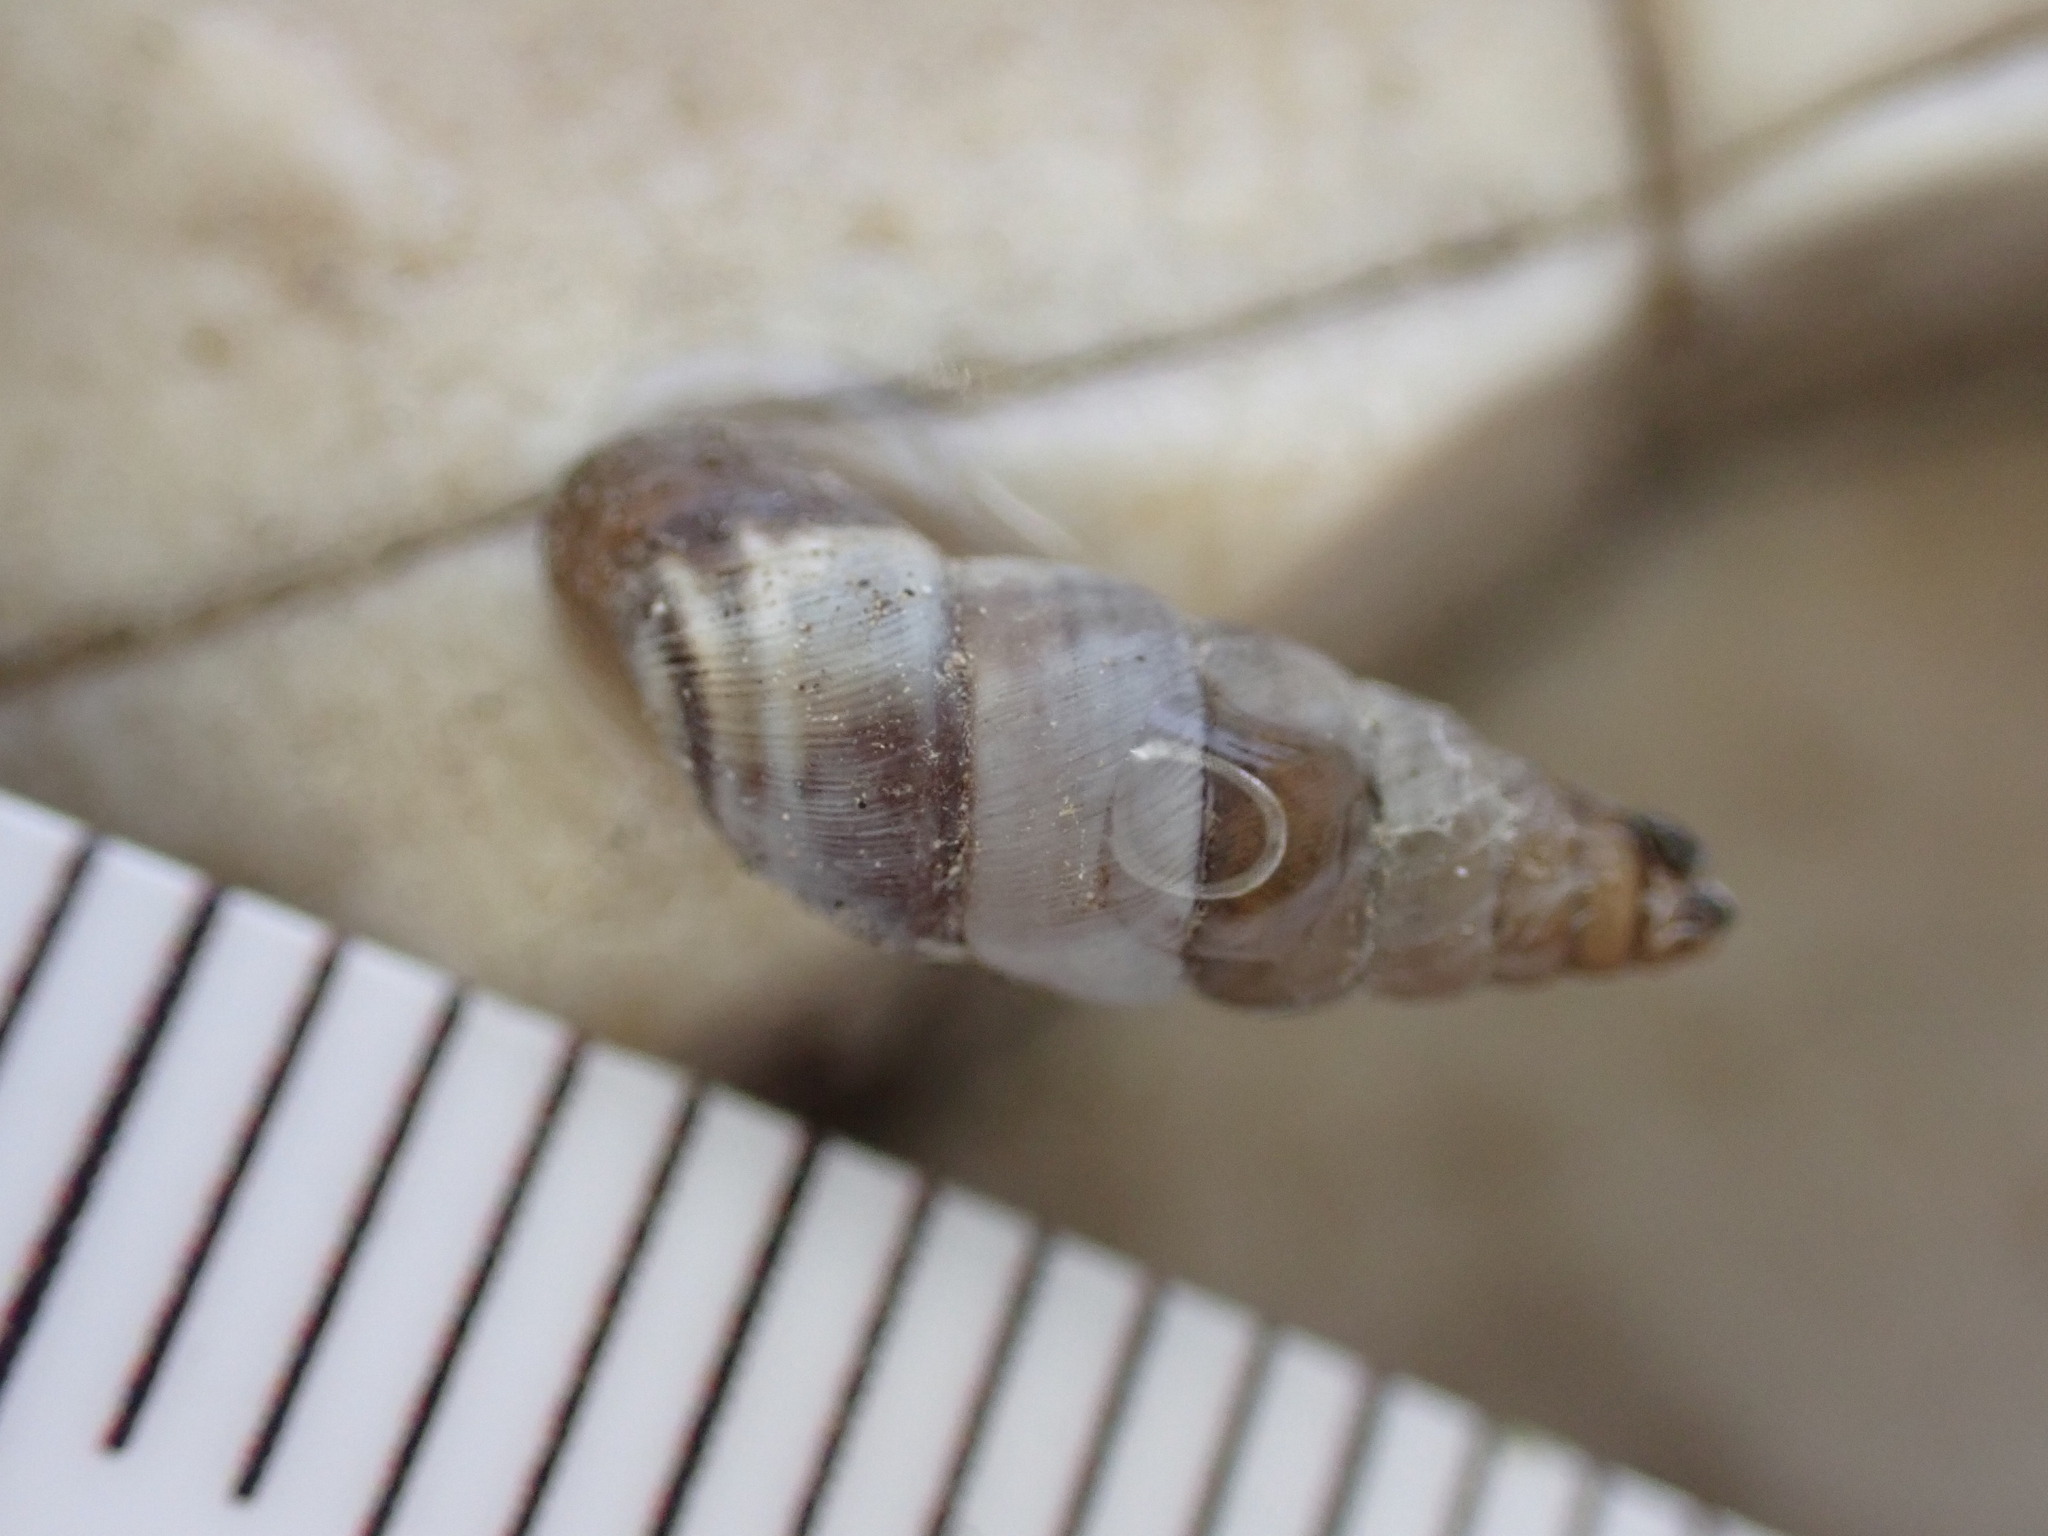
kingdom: Animalia
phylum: Mollusca
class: Gastropoda
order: Stylommatophora
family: Chondrinidae
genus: Solatopupa
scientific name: Solatopupa similis
